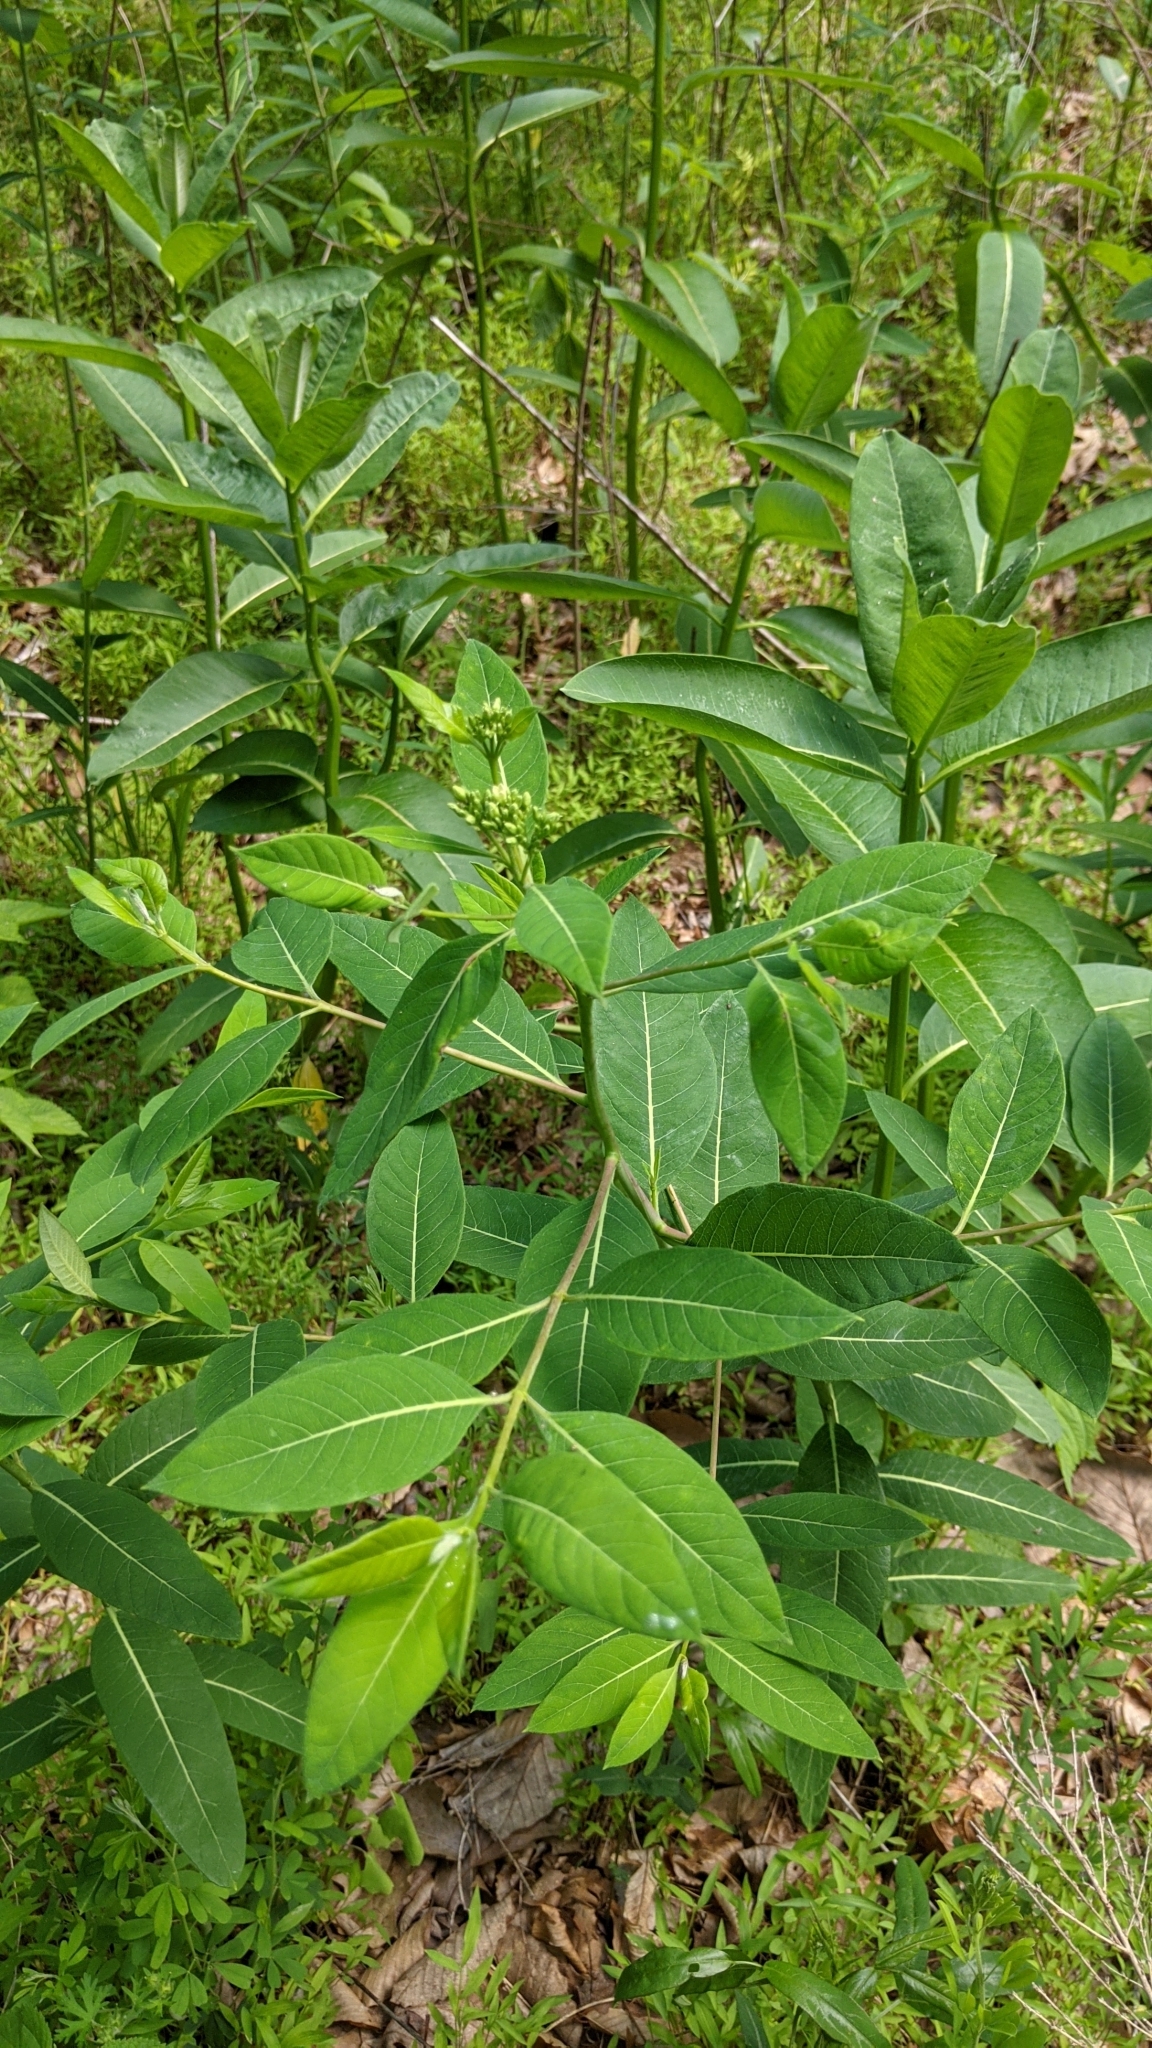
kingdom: Plantae
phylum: Tracheophyta
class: Magnoliopsida
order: Gentianales
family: Apocynaceae
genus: Apocynum
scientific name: Apocynum cannabinum
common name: Hemp dogbane
